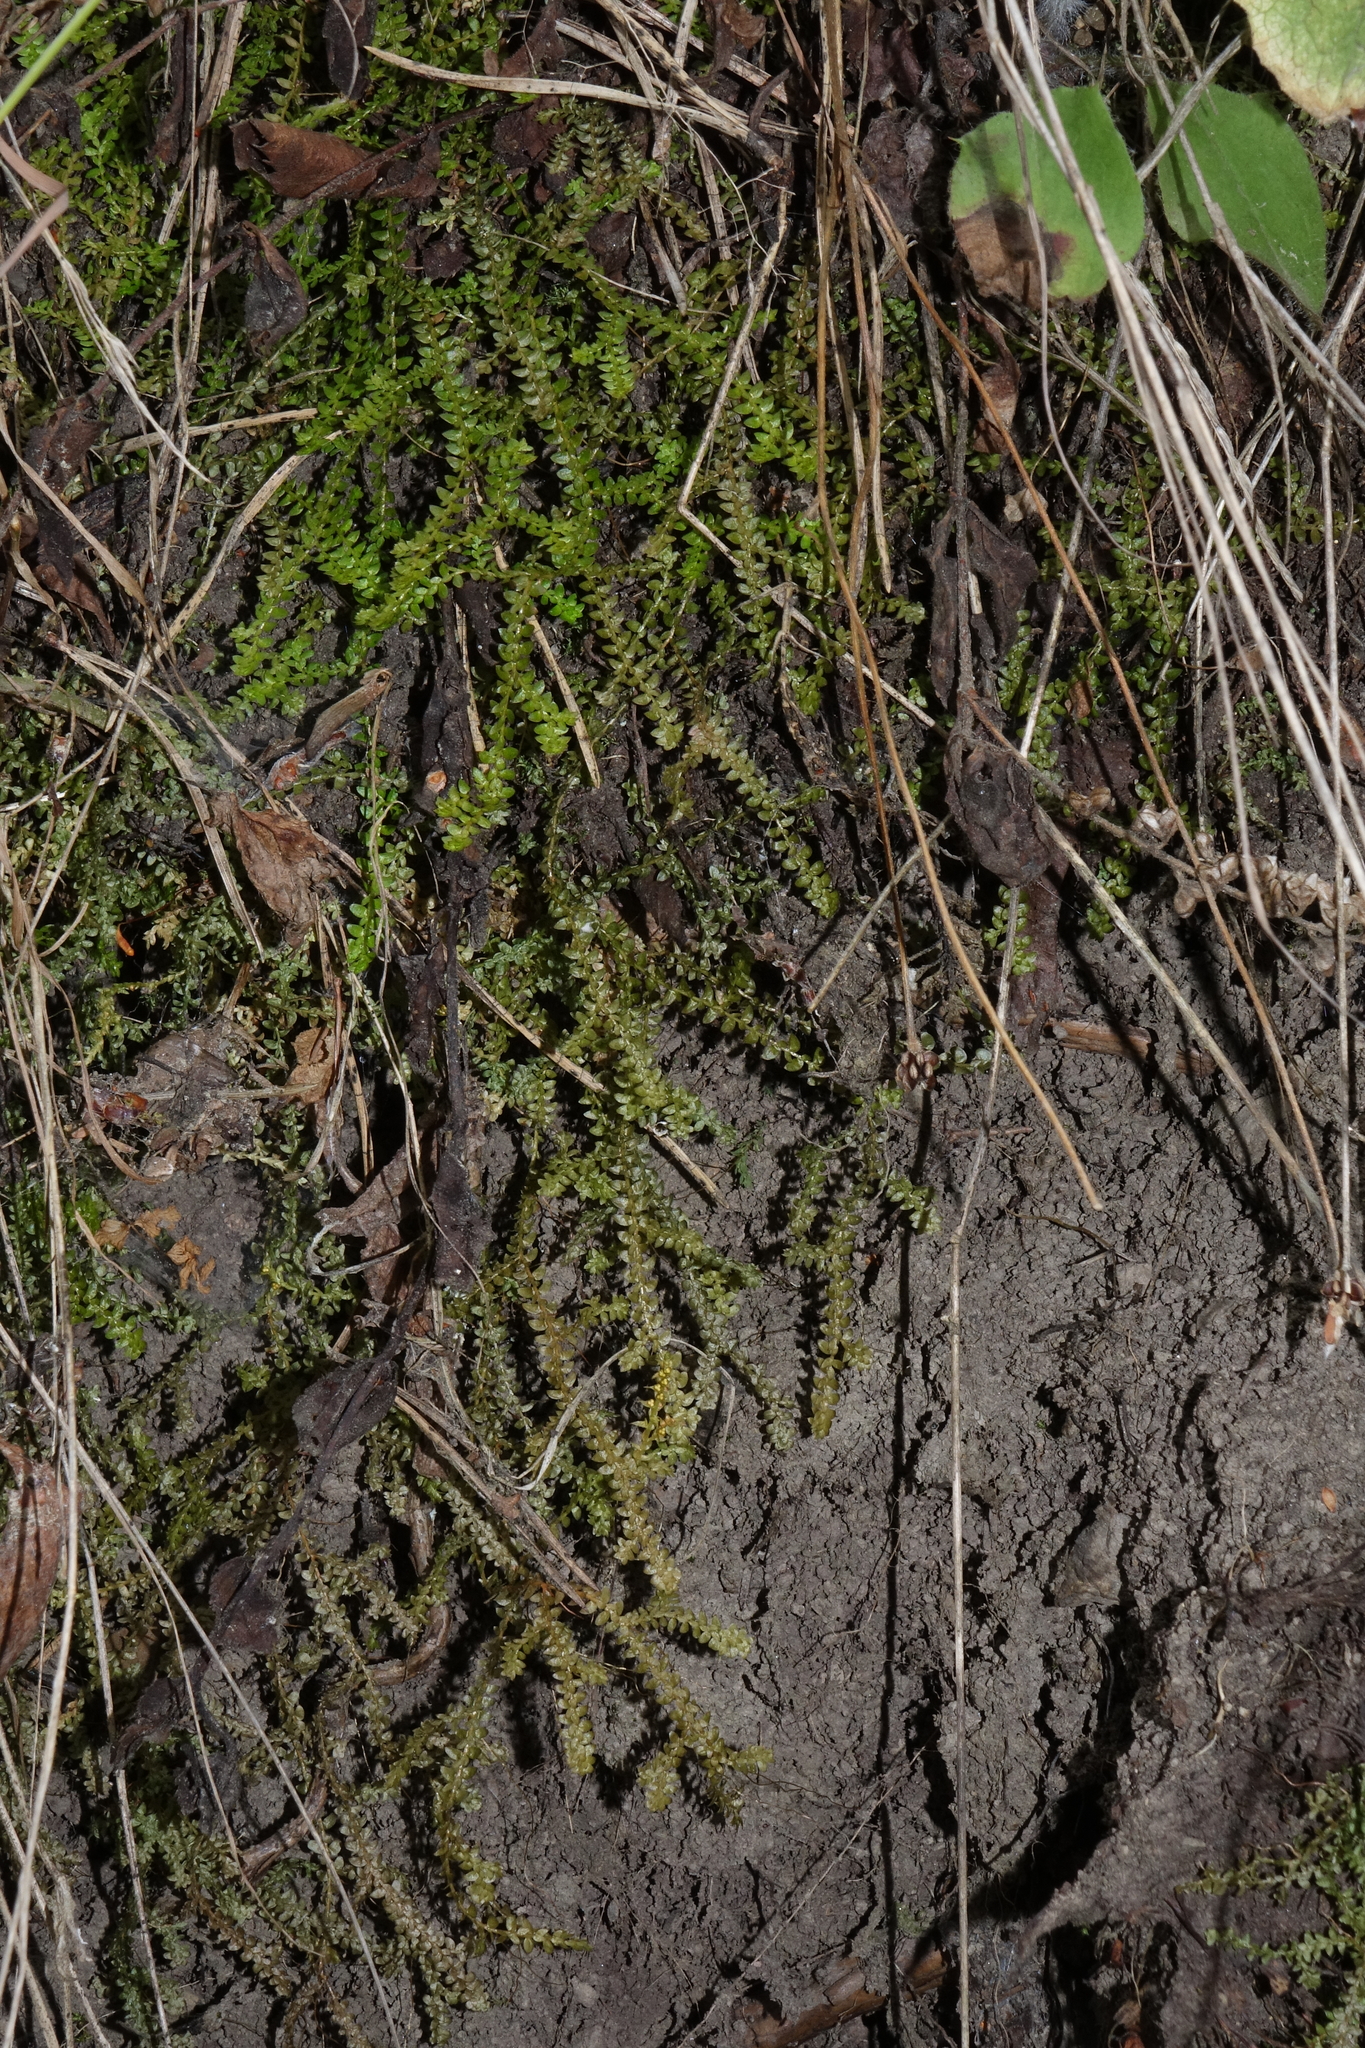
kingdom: Plantae
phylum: Tracheophyta
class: Lycopodiopsida
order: Selaginellales
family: Selaginellaceae
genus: Selaginella
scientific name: Selaginella helvetica
